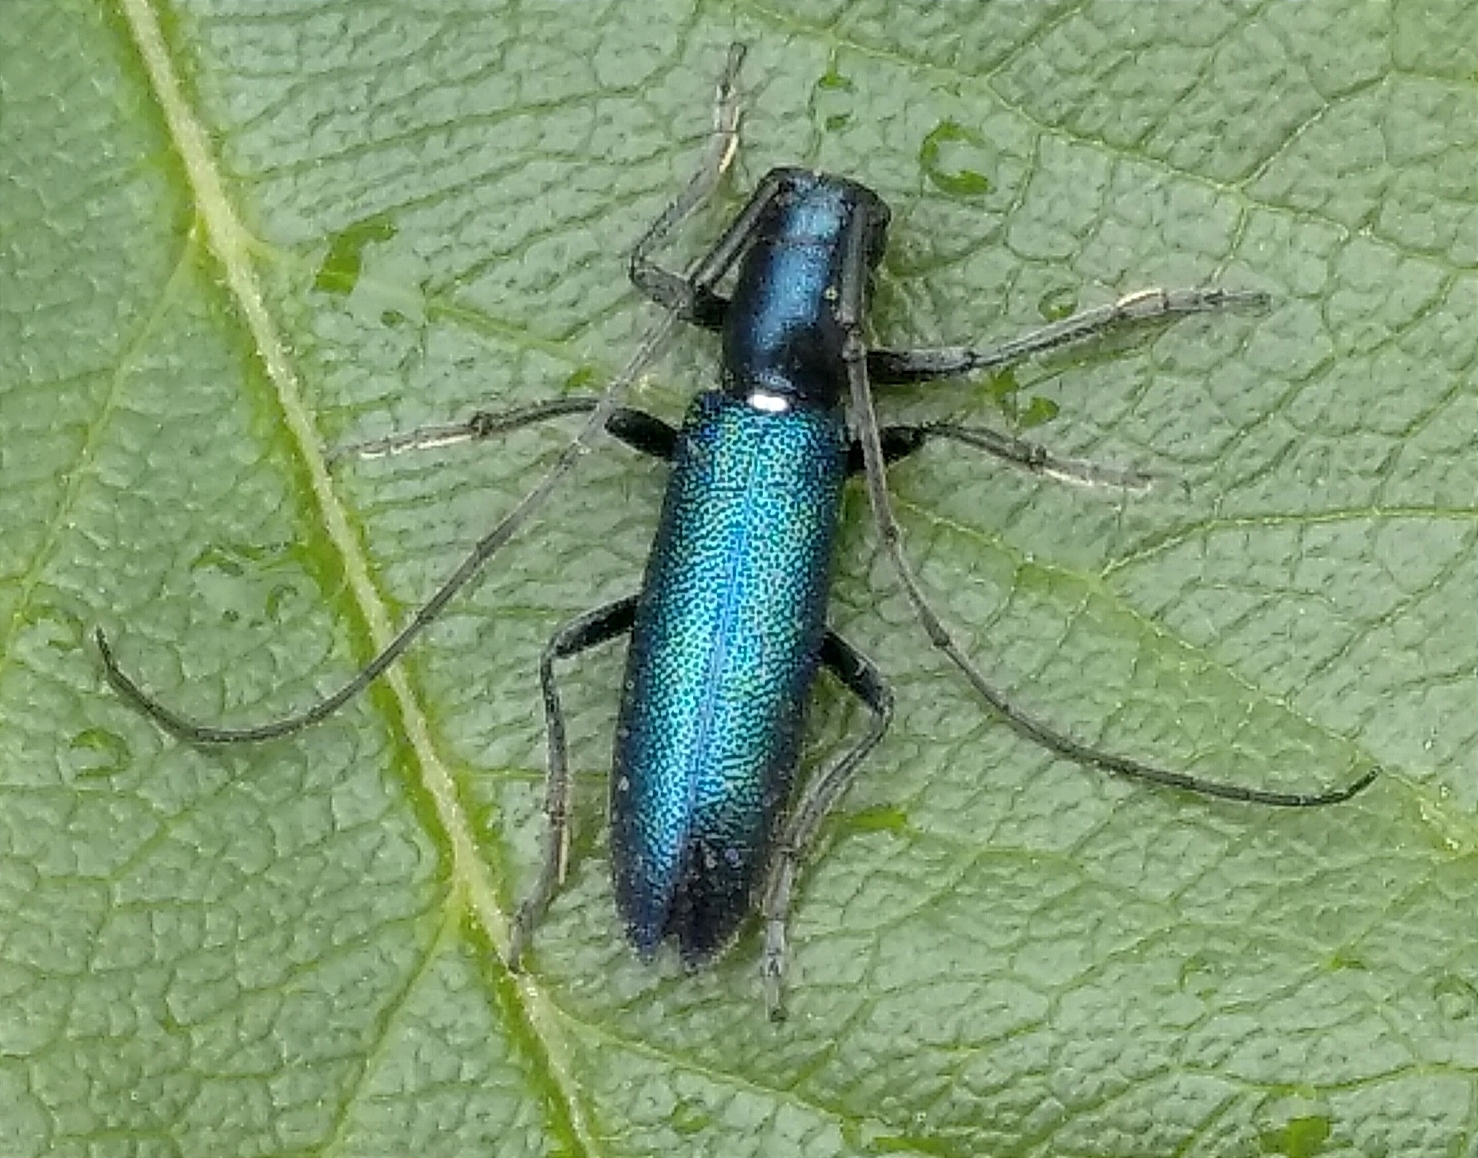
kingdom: Animalia
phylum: Arthropoda
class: Insecta
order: Coleoptera
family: Cerambycidae
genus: Agapanthiola
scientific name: Agapanthiola leucaspis
